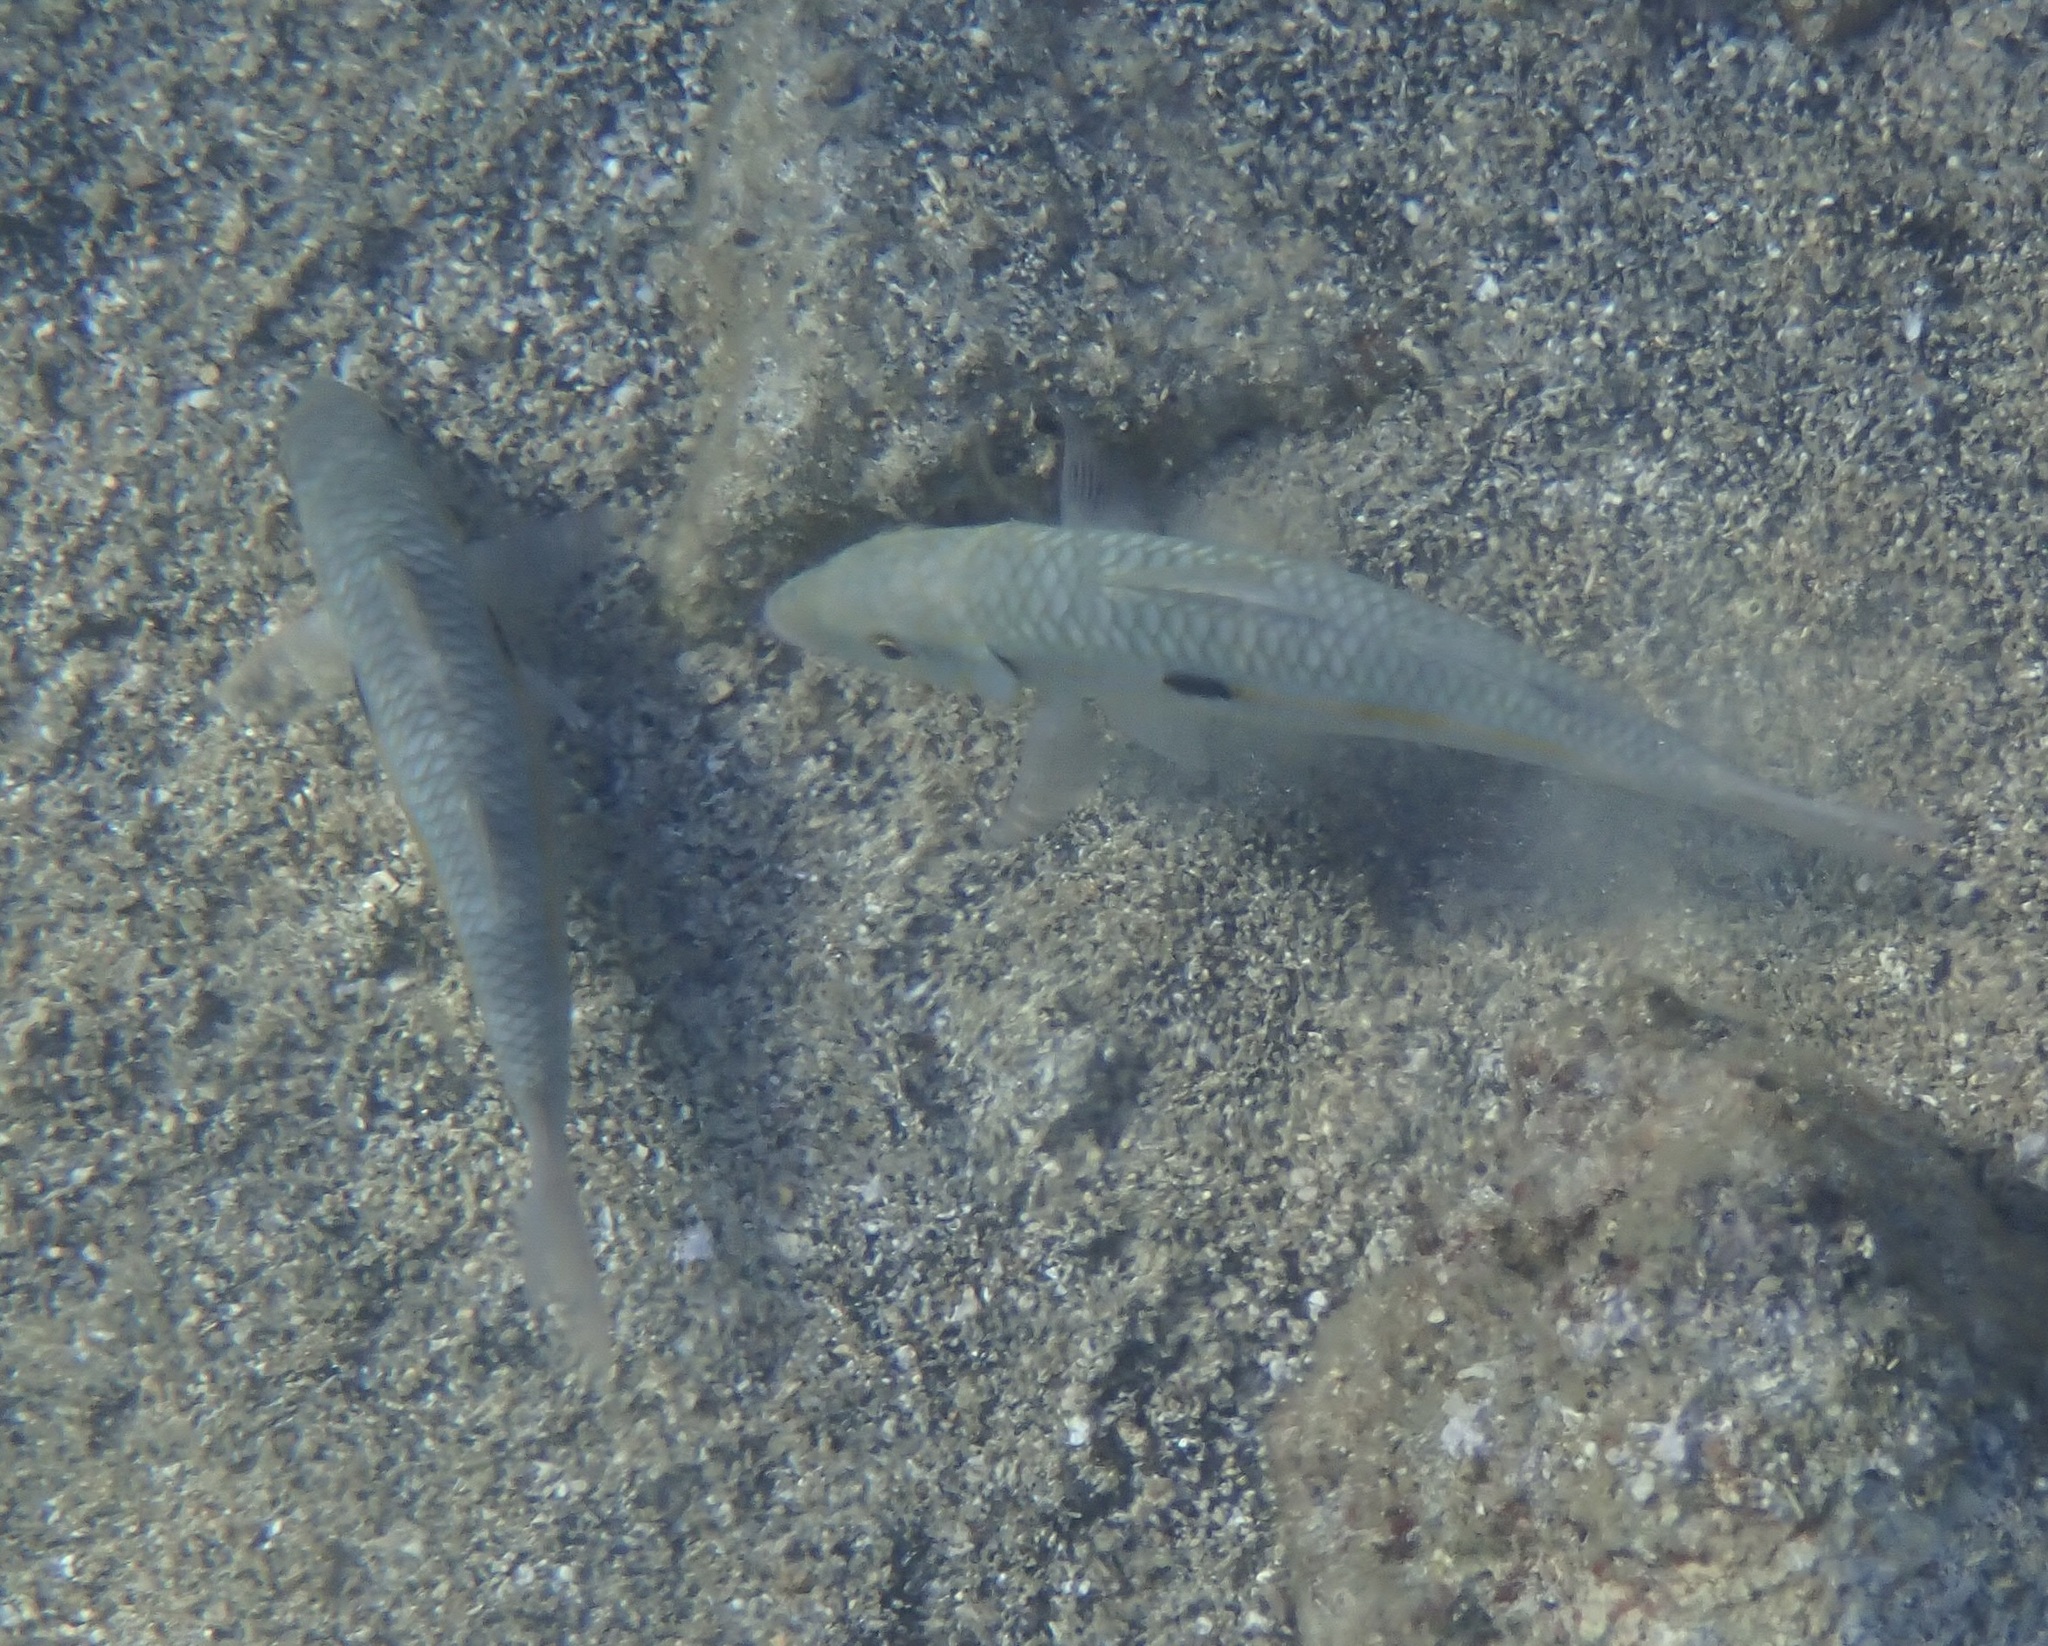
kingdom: Animalia
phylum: Chordata
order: Perciformes
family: Mullidae
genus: Mulloidichthys
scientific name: Mulloidichthys flavolineatus
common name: Yellowstripe goatfish
